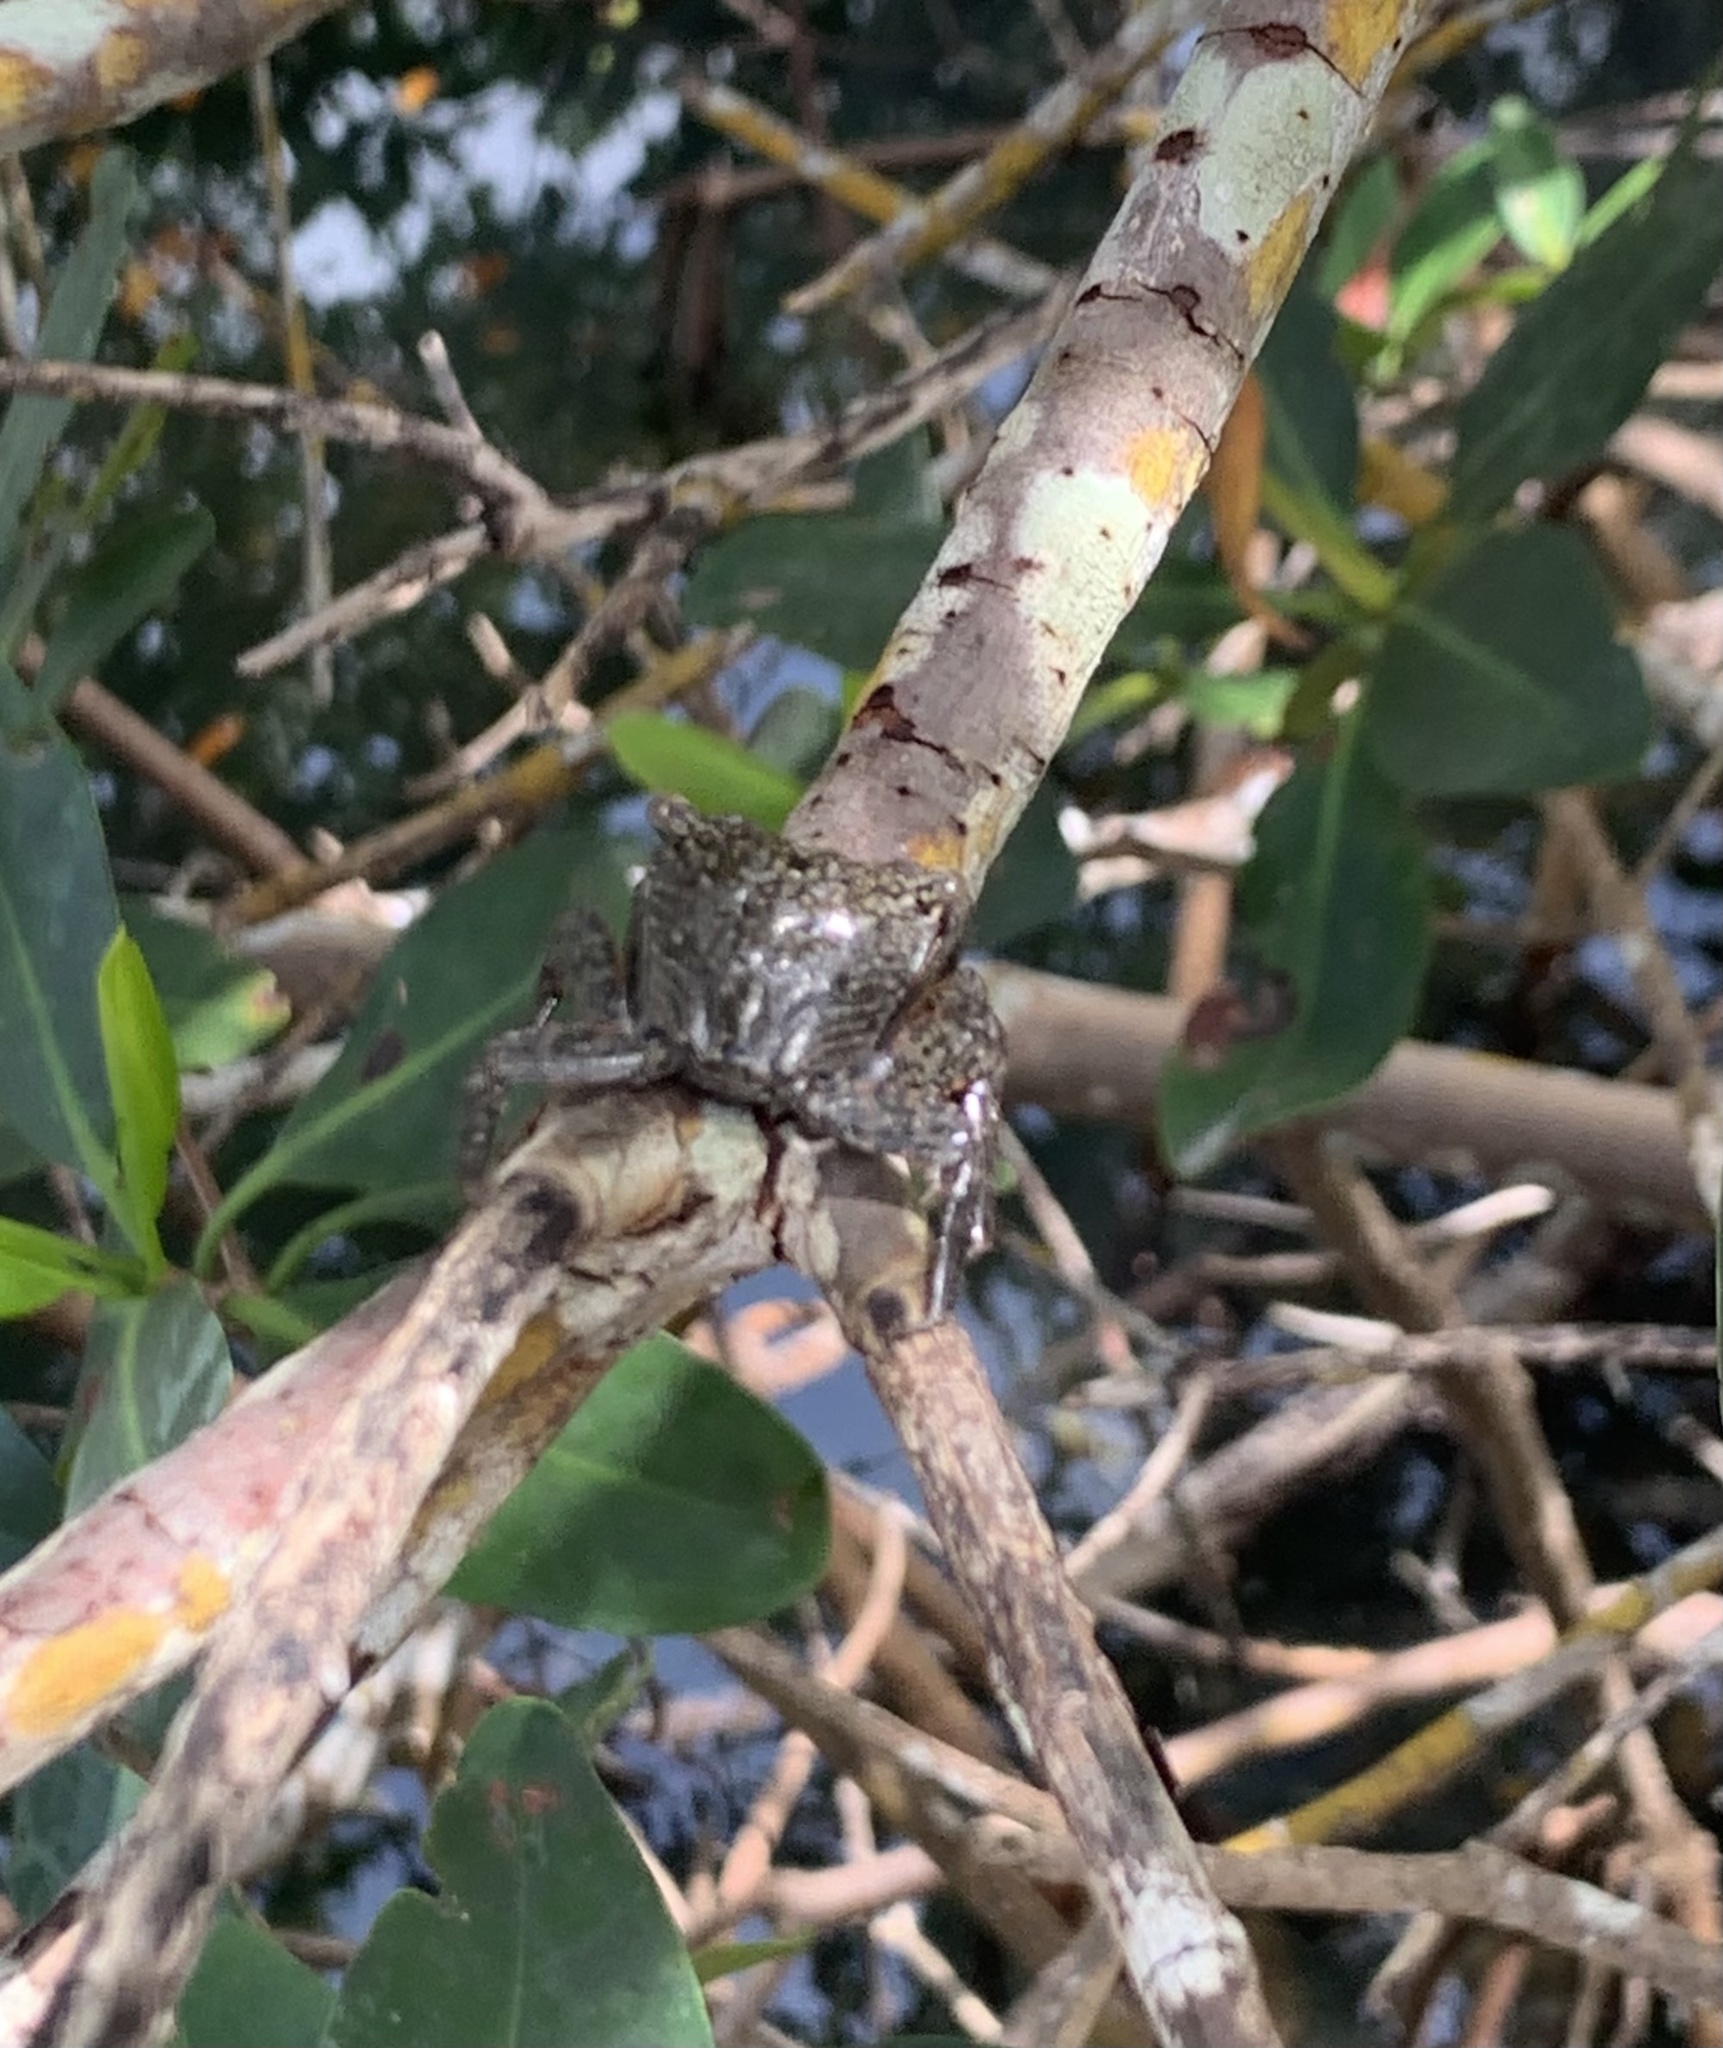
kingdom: Animalia
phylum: Arthropoda
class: Malacostraca
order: Decapoda
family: Sesarmidae
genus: Aratus
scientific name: Aratus pisonii
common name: Mangrove crab
